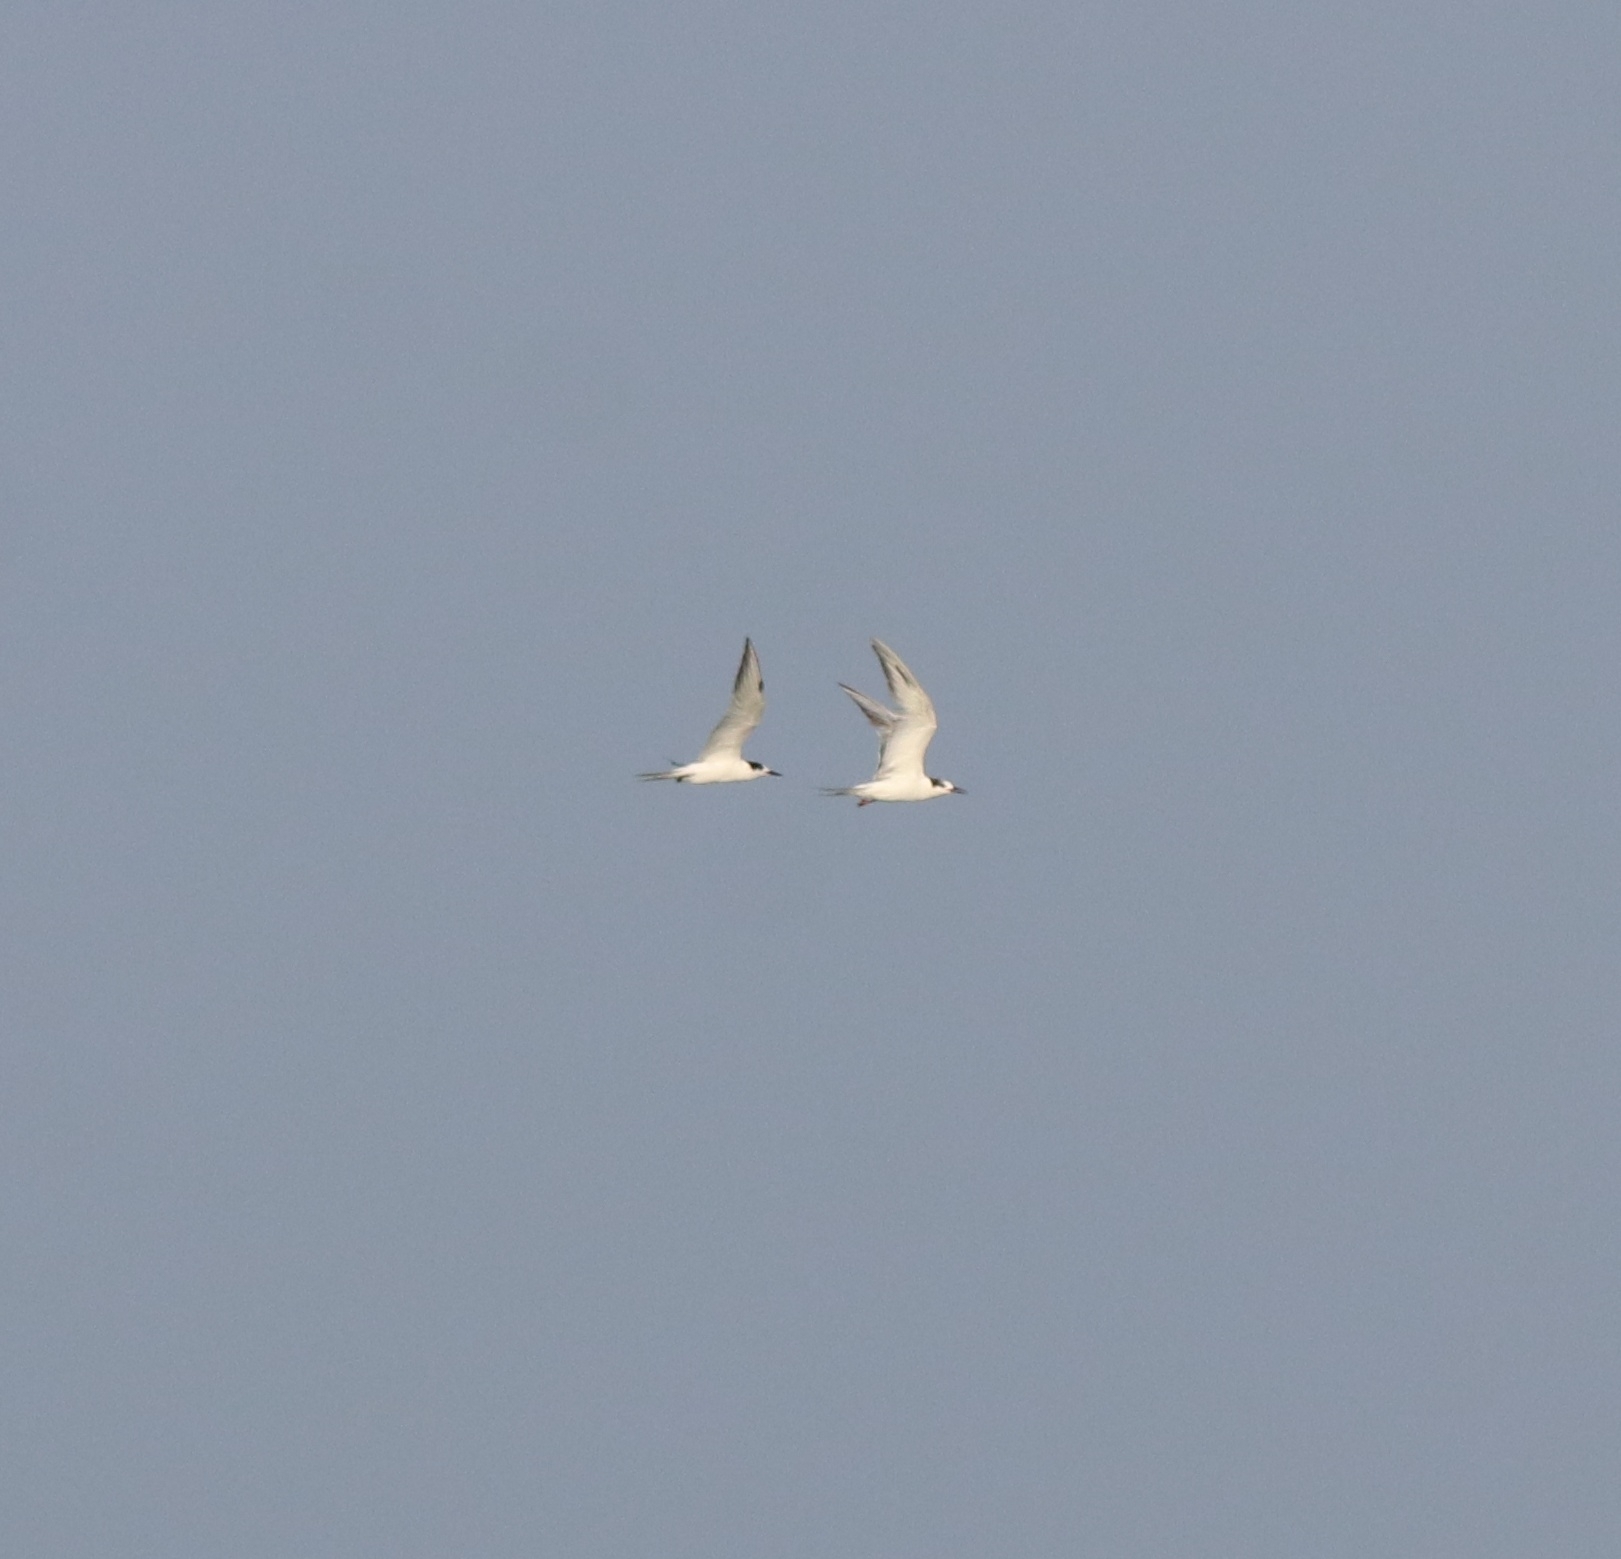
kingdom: Animalia
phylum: Chordata
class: Aves
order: Charadriiformes
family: Laridae
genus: Sterna
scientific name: Sterna hirundo
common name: Common tern
